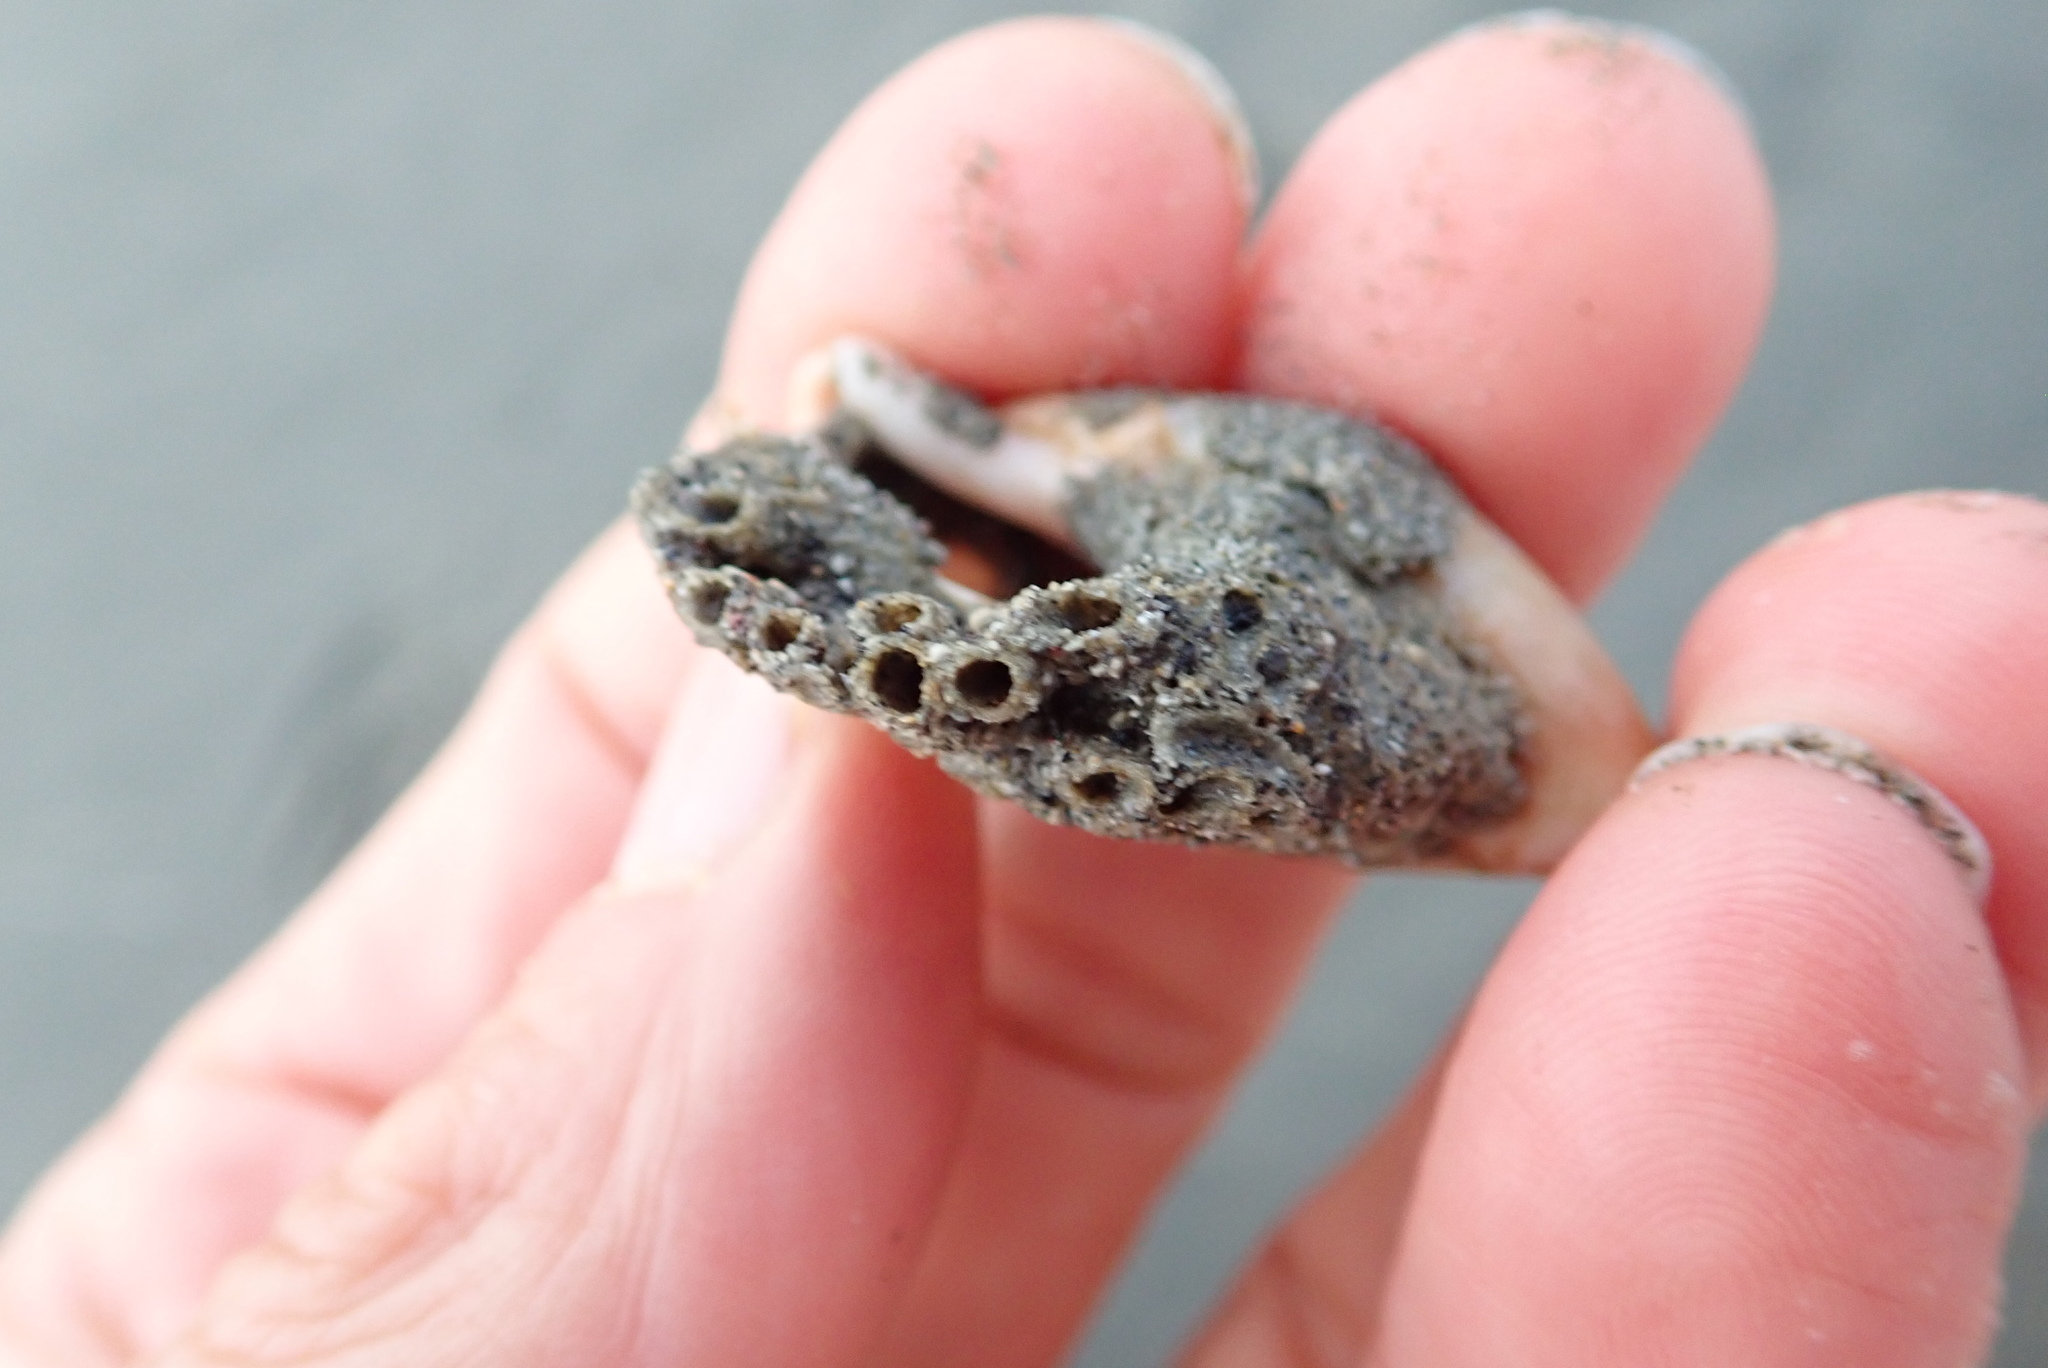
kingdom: Animalia
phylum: Mollusca
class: Gastropoda
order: Neogastropoda
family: Ancillariidae
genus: Amalda
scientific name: Amalda mucronata
